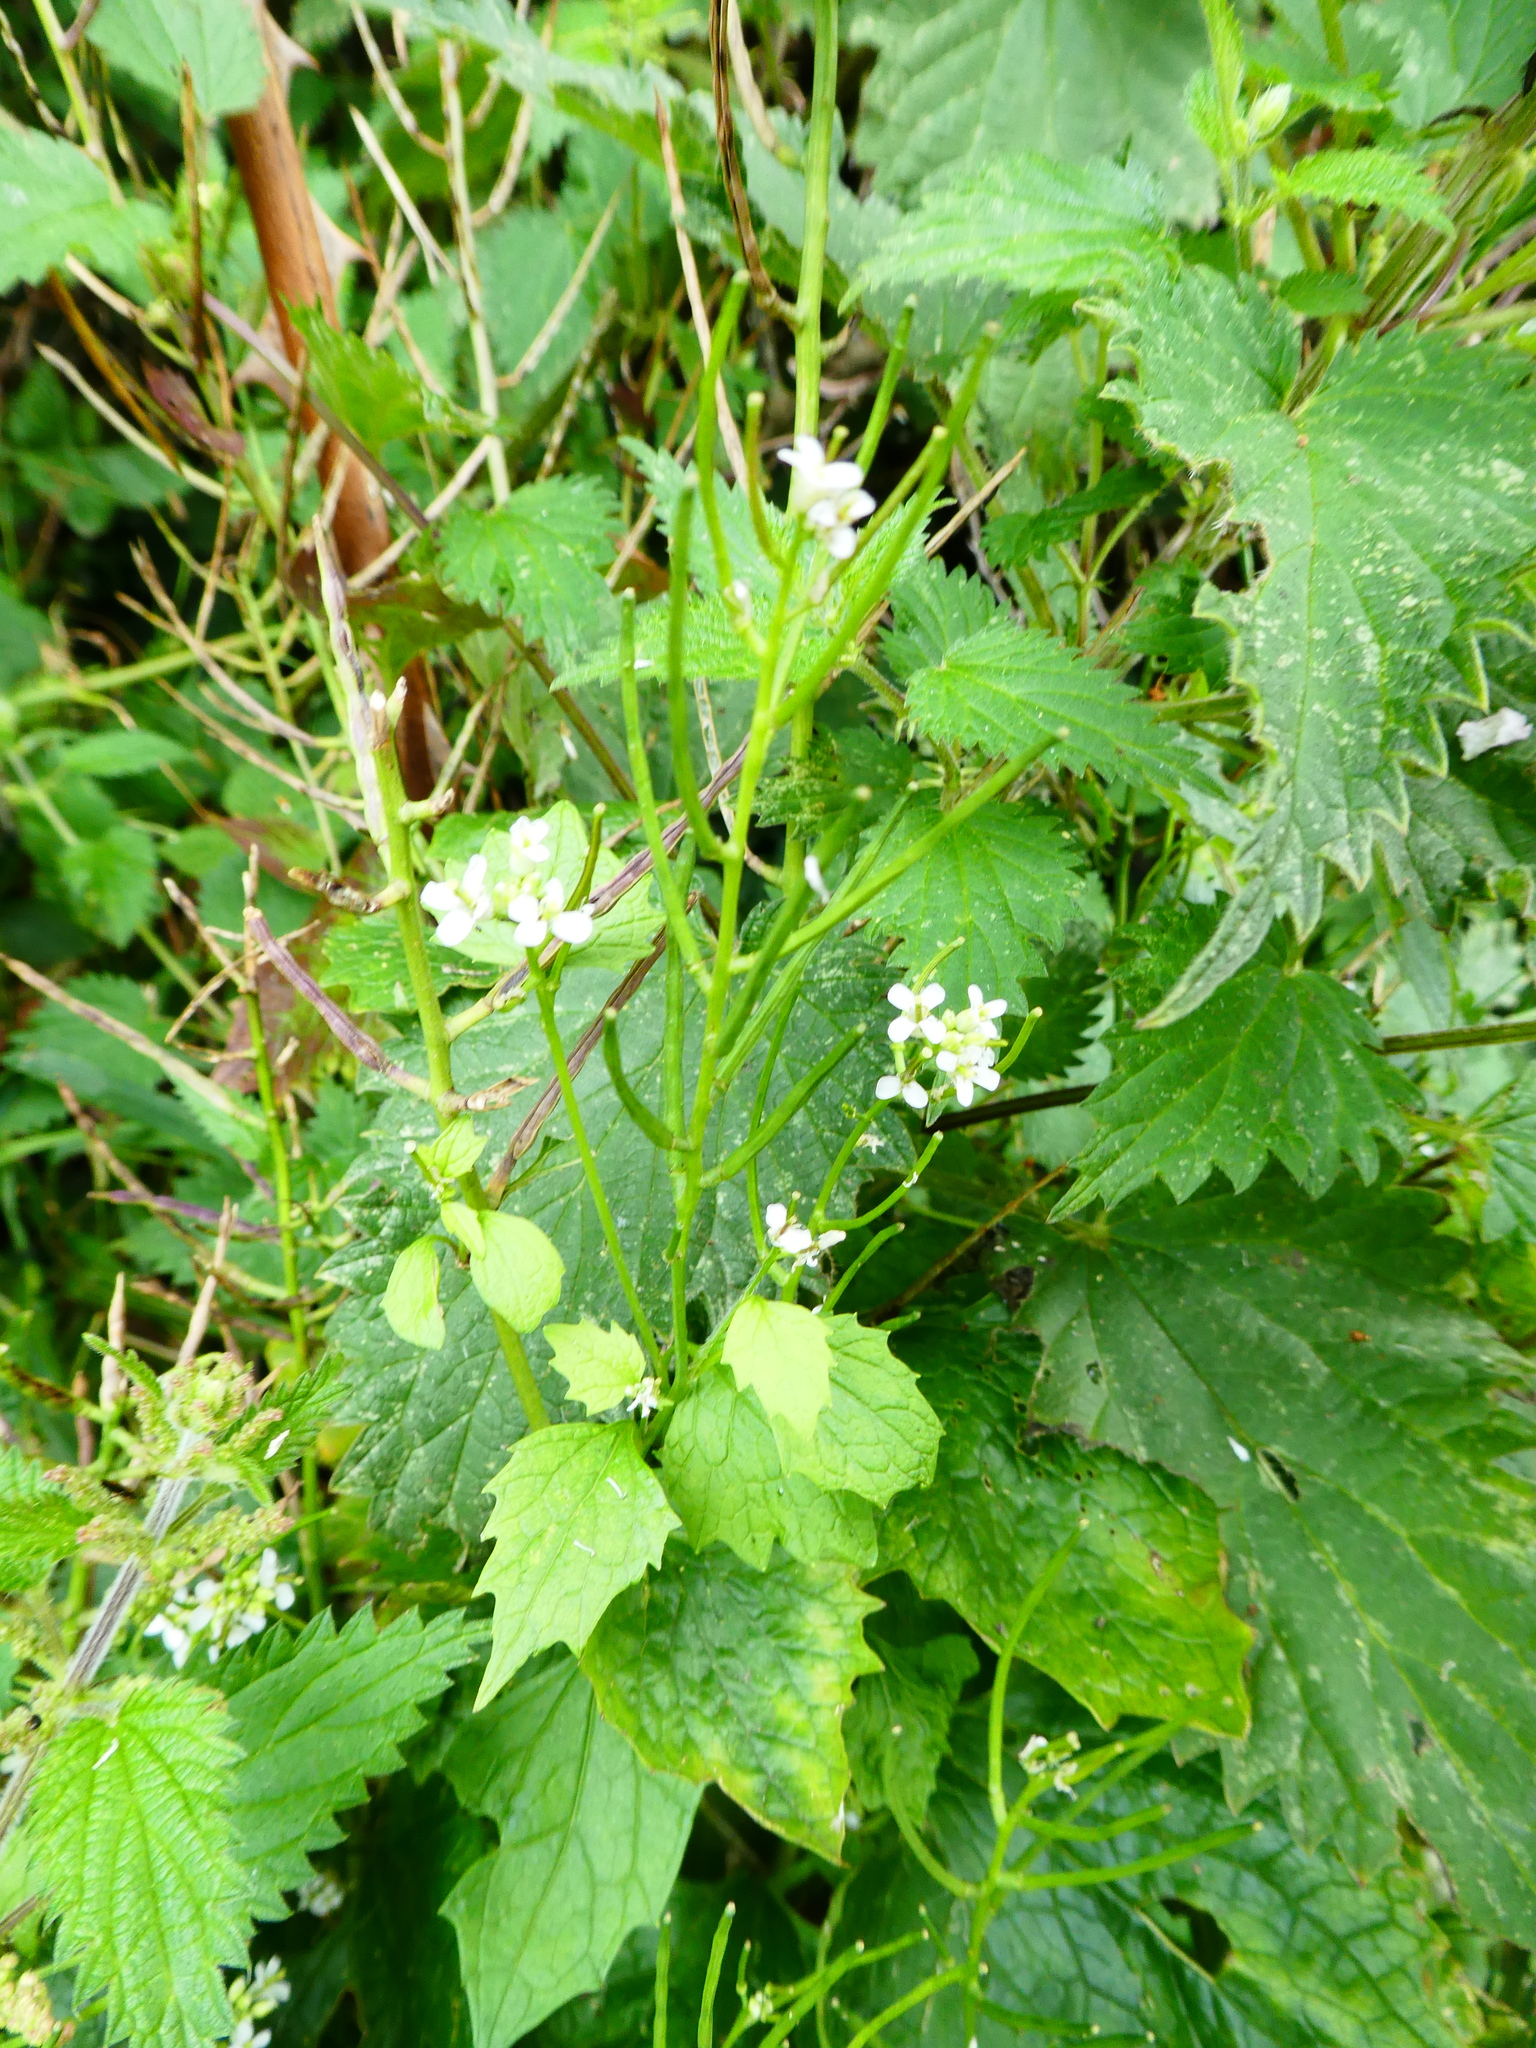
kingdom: Plantae
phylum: Tracheophyta
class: Magnoliopsida
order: Brassicales
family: Brassicaceae
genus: Alliaria
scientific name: Alliaria petiolata
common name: Garlic mustard
